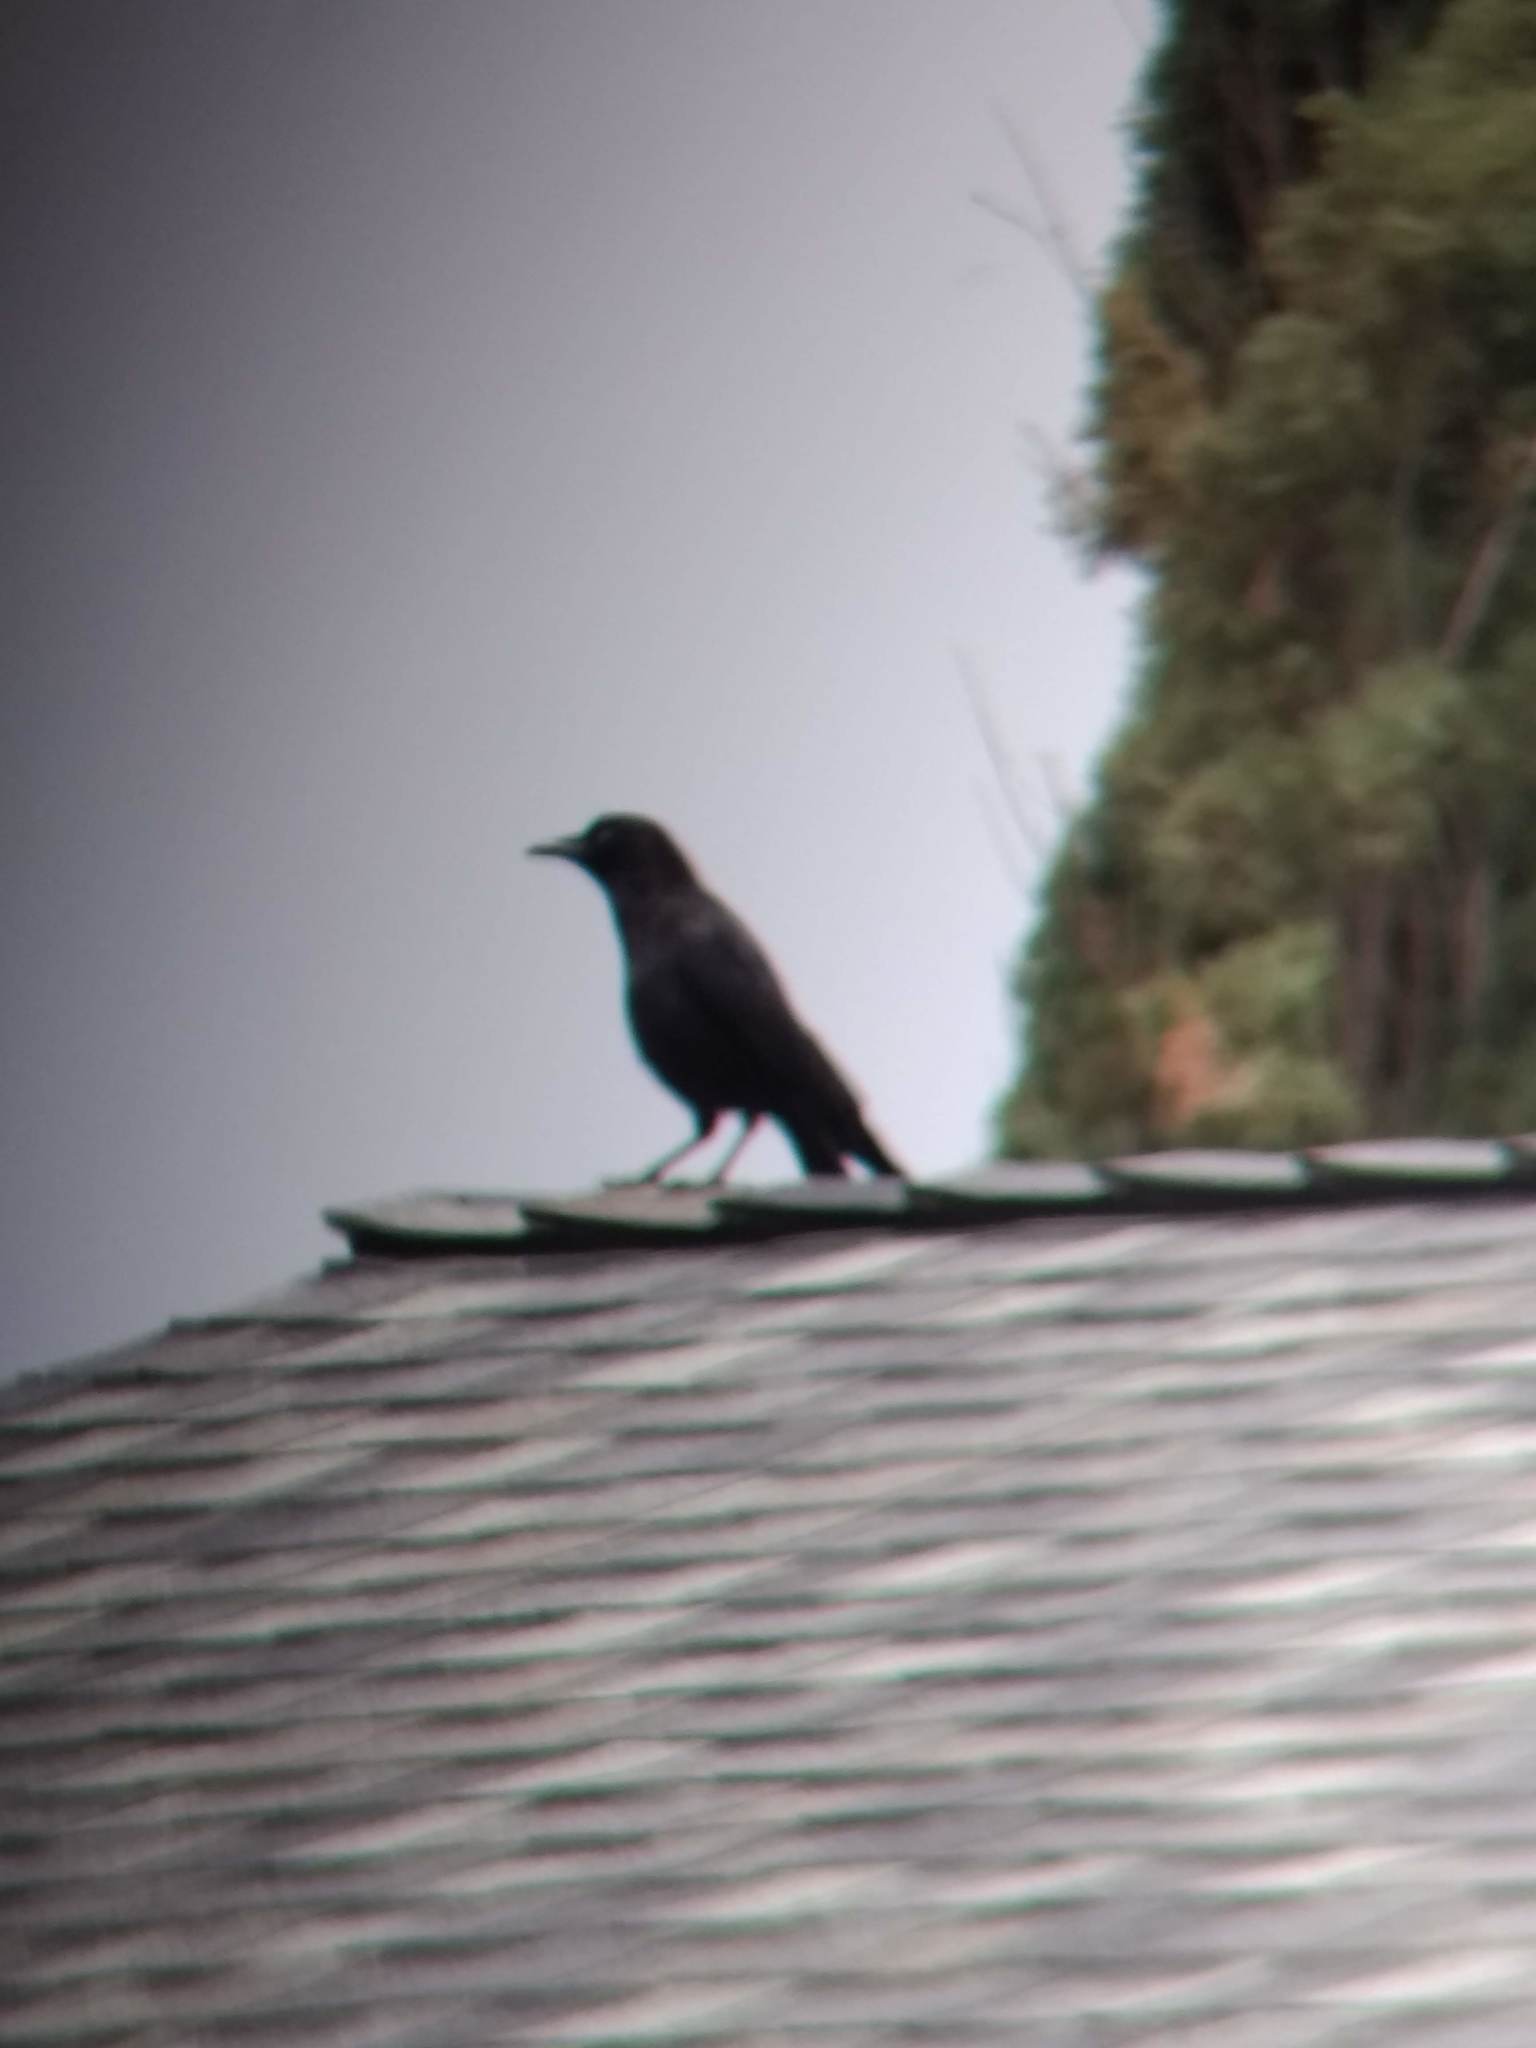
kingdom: Animalia
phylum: Chordata
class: Aves
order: Passeriformes
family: Corvidae
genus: Corvus
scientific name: Corvus brachyrhynchos
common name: American crow
